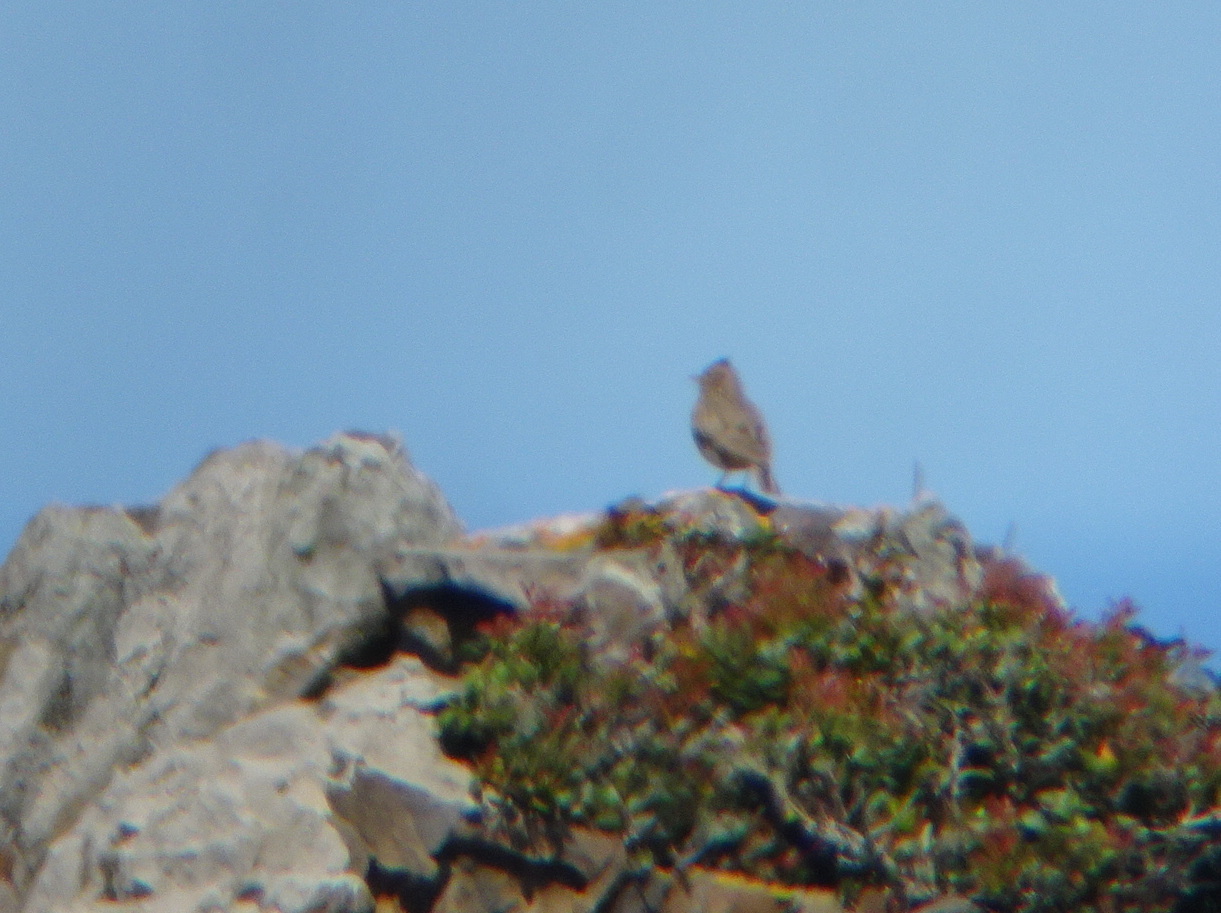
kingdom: Animalia
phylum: Chordata
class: Aves
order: Passeriformes
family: Alaudidae
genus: Galerida
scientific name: Galerida cristata
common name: Crested lark
